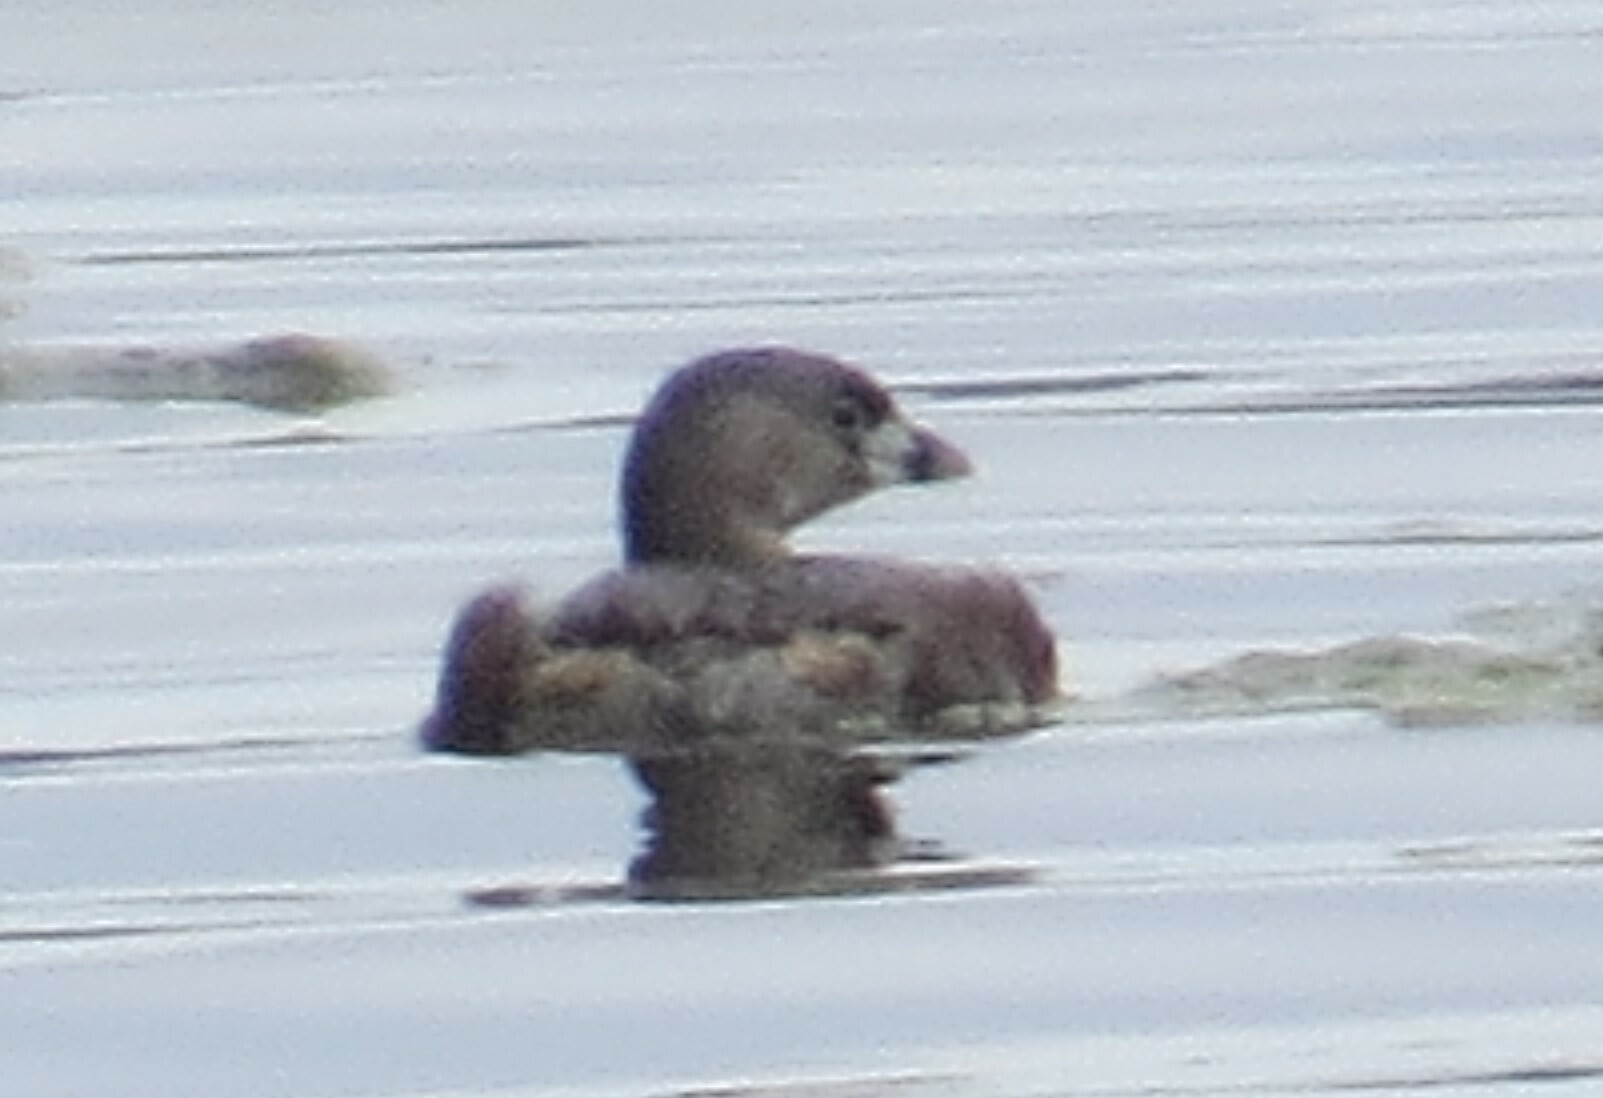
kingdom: Animalia
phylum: Chordata
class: Aves
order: Podicipediformes
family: Podicipedidae
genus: Podilymbus
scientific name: Podilymbus podiceps
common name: Pied-billed grebe
